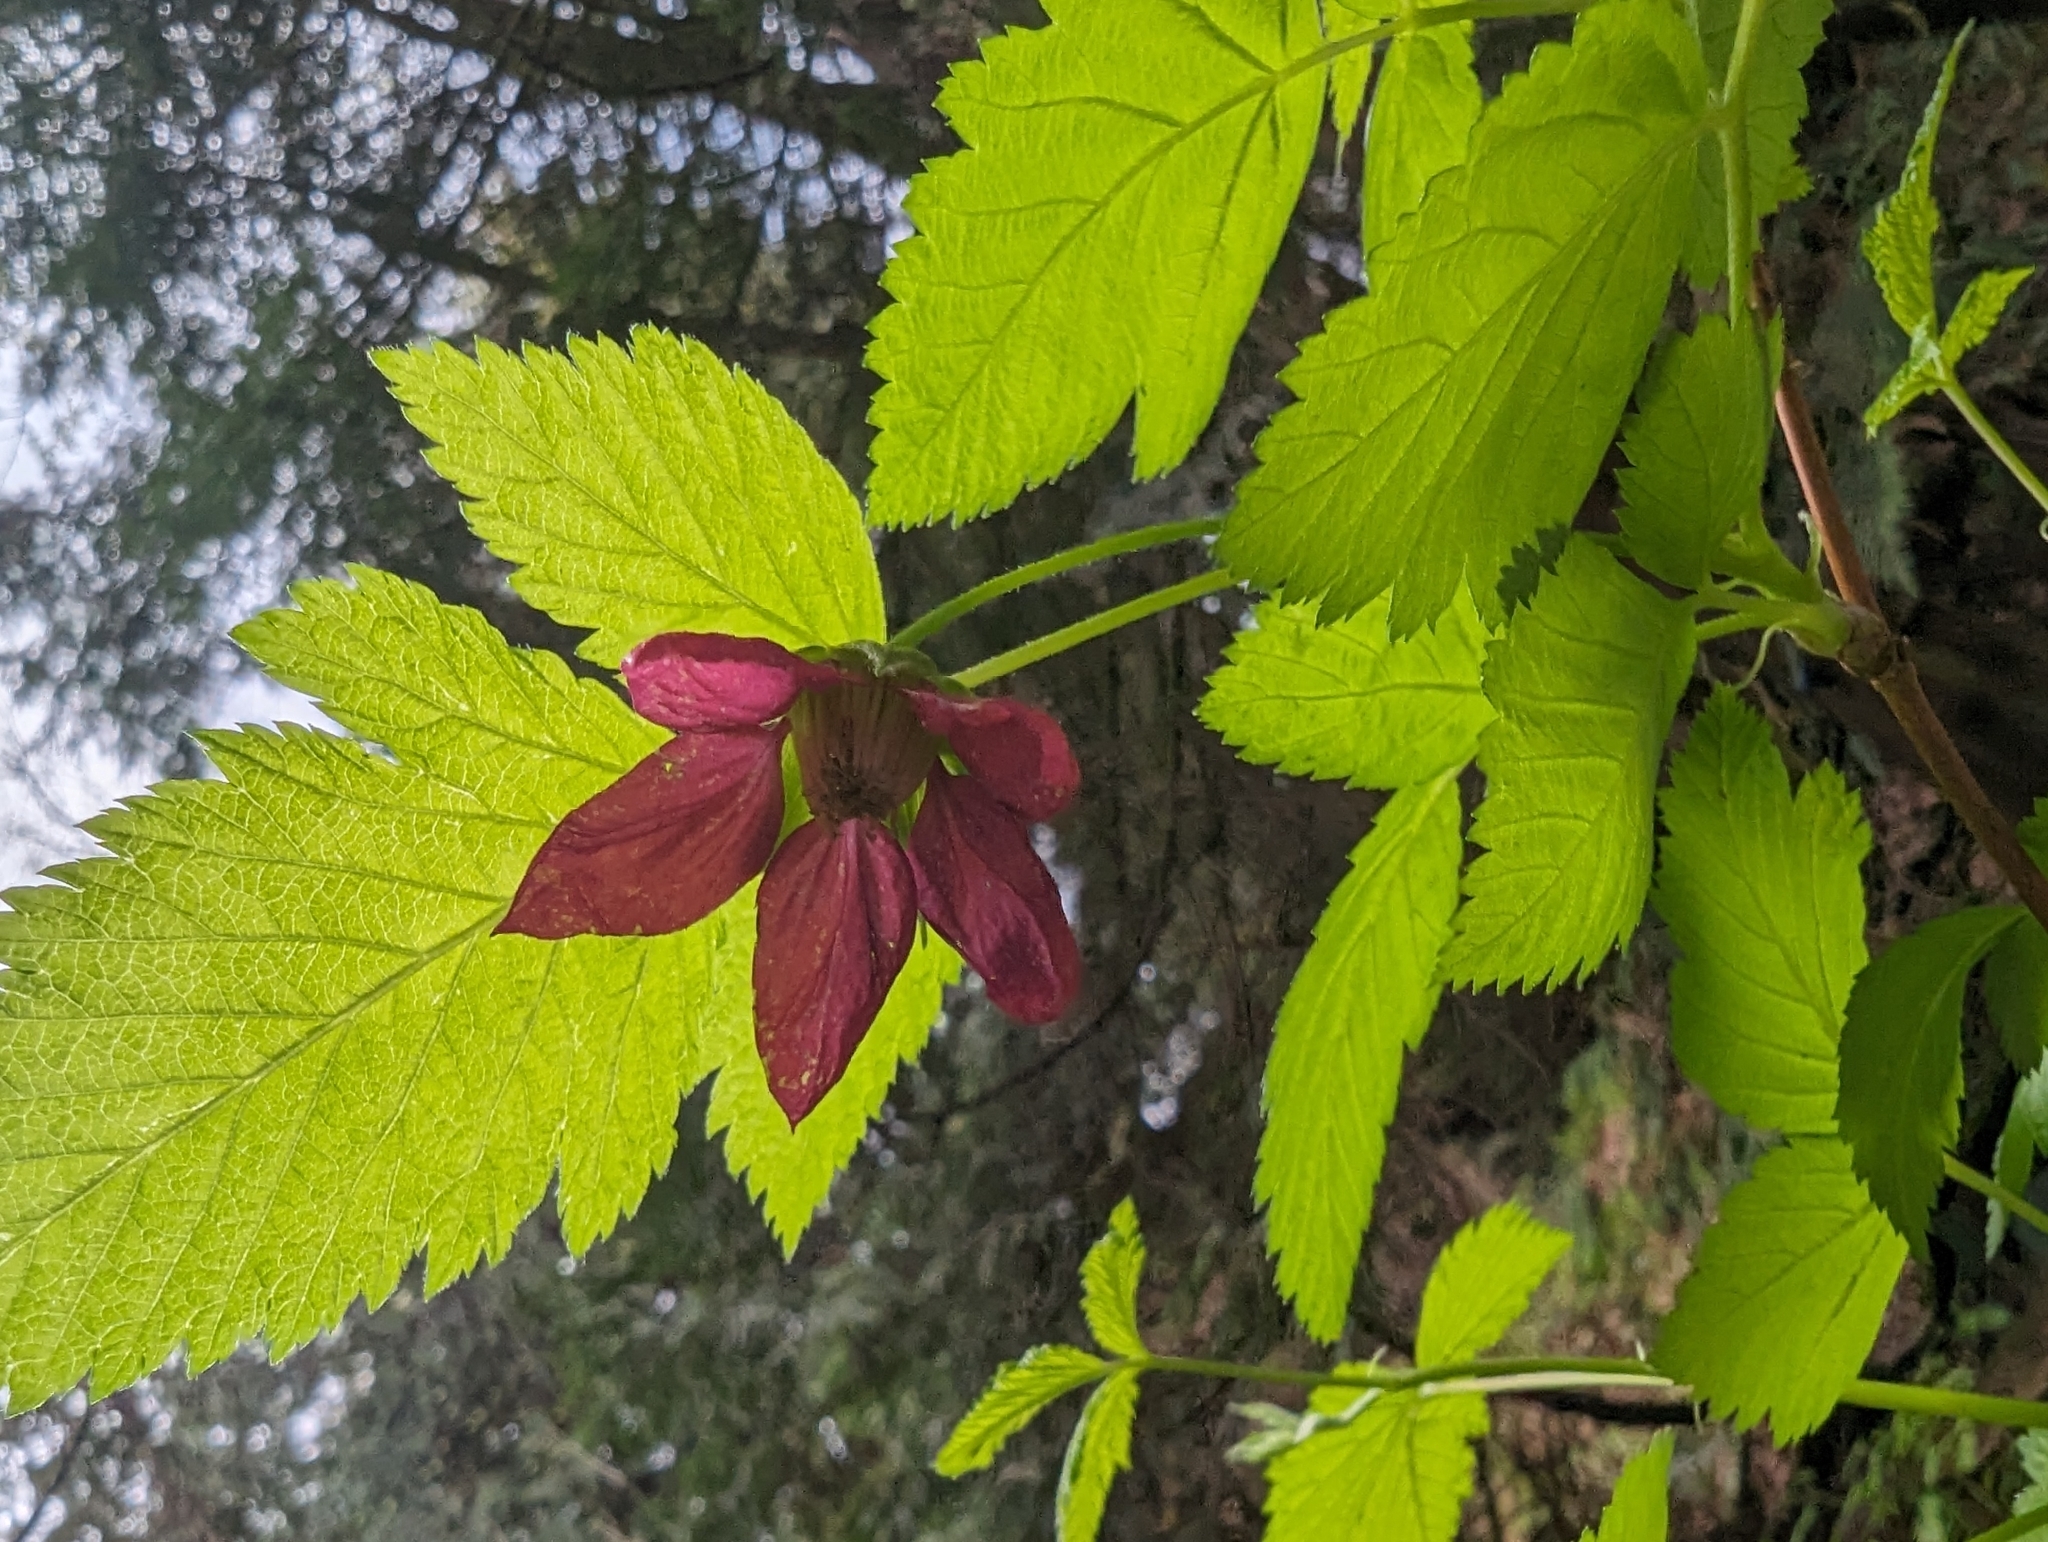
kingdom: Plantae
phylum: Tracheophyta
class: Magnoliopsida
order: Rosales
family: Rosaceae
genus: Rubus
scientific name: Rubus spectabilis
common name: Salmonberry
